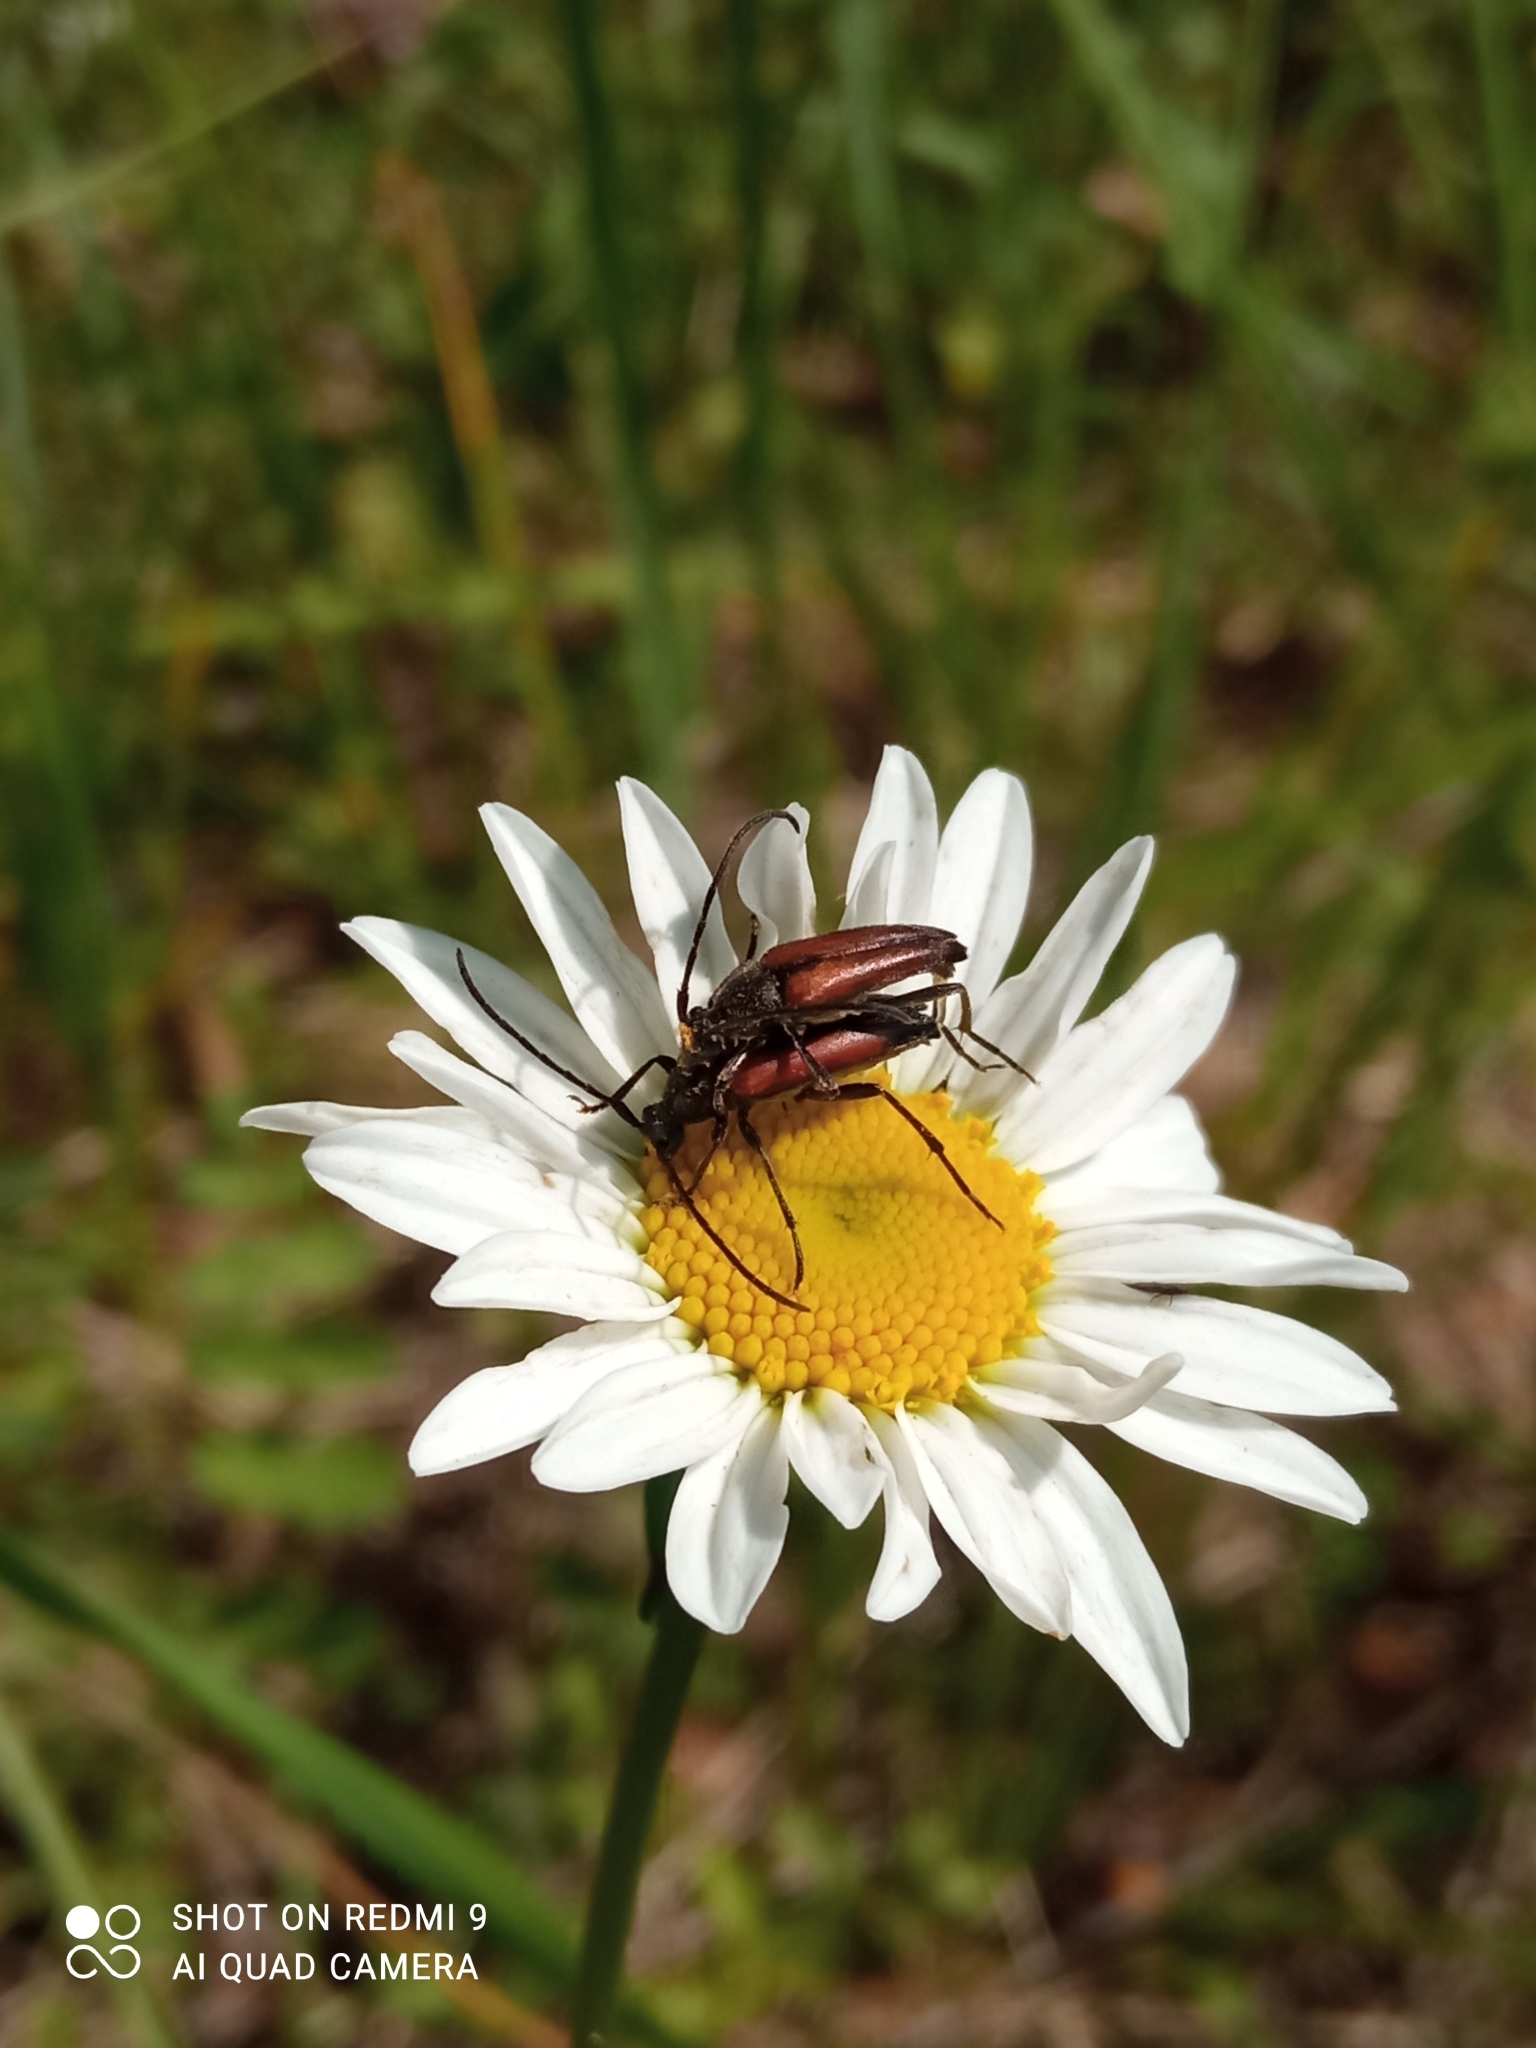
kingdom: Animalia
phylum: Arthropoda
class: Insecta
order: Coleoptera
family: Cerambycidae
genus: Stenurella
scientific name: Stenurella melanura
